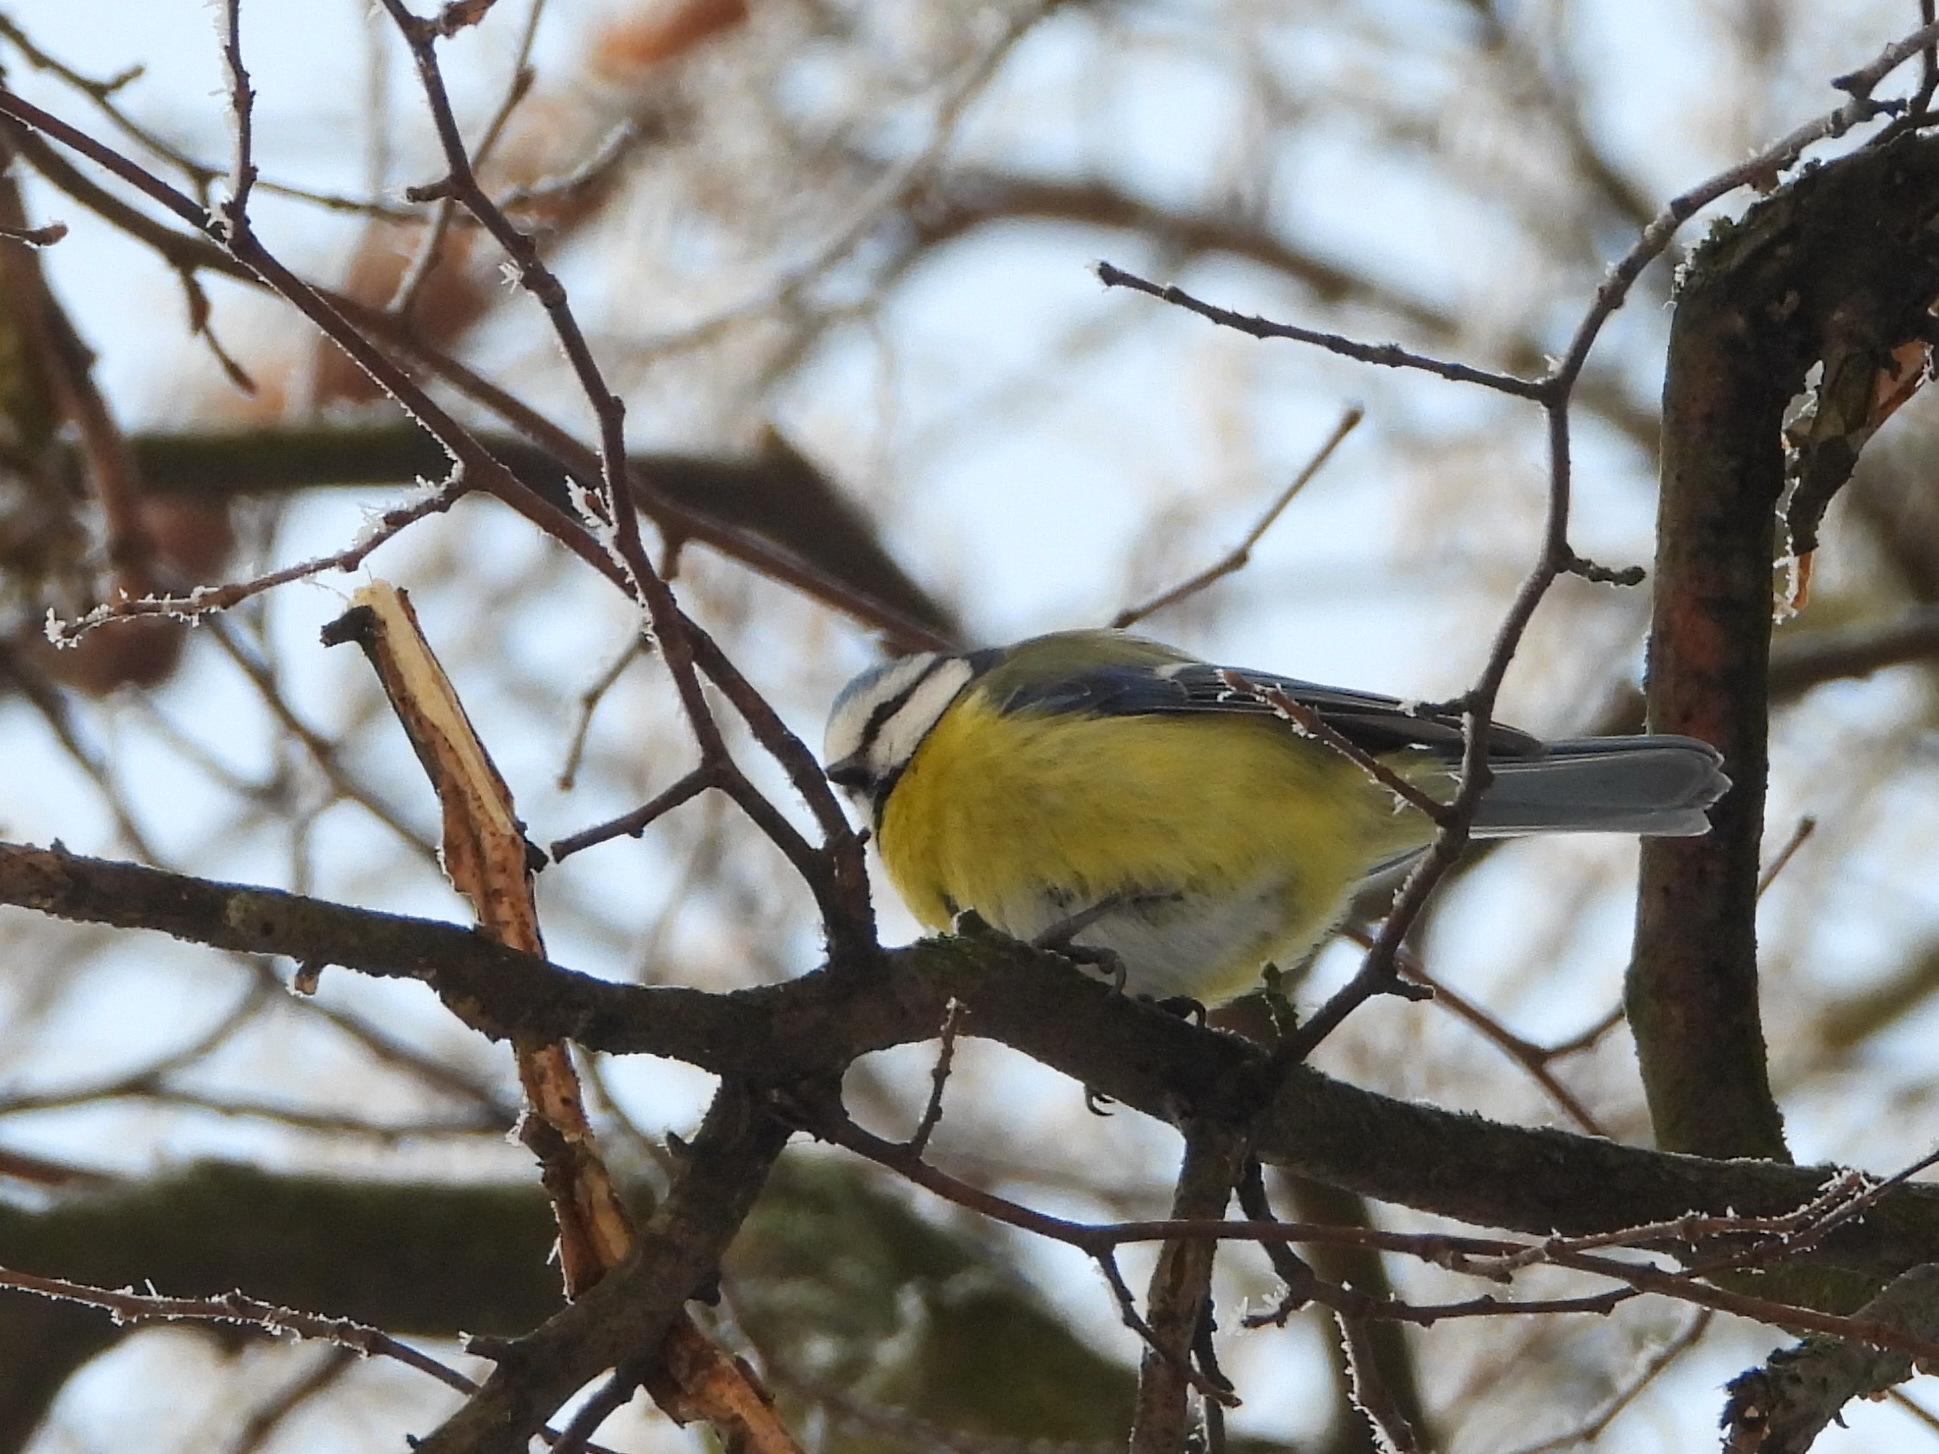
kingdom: Animalia
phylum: Chordata
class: Aves
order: Passeriformes
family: Paridae
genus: Cyanistes
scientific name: Cyanistes caeruleus
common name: Eurasian blue tit
